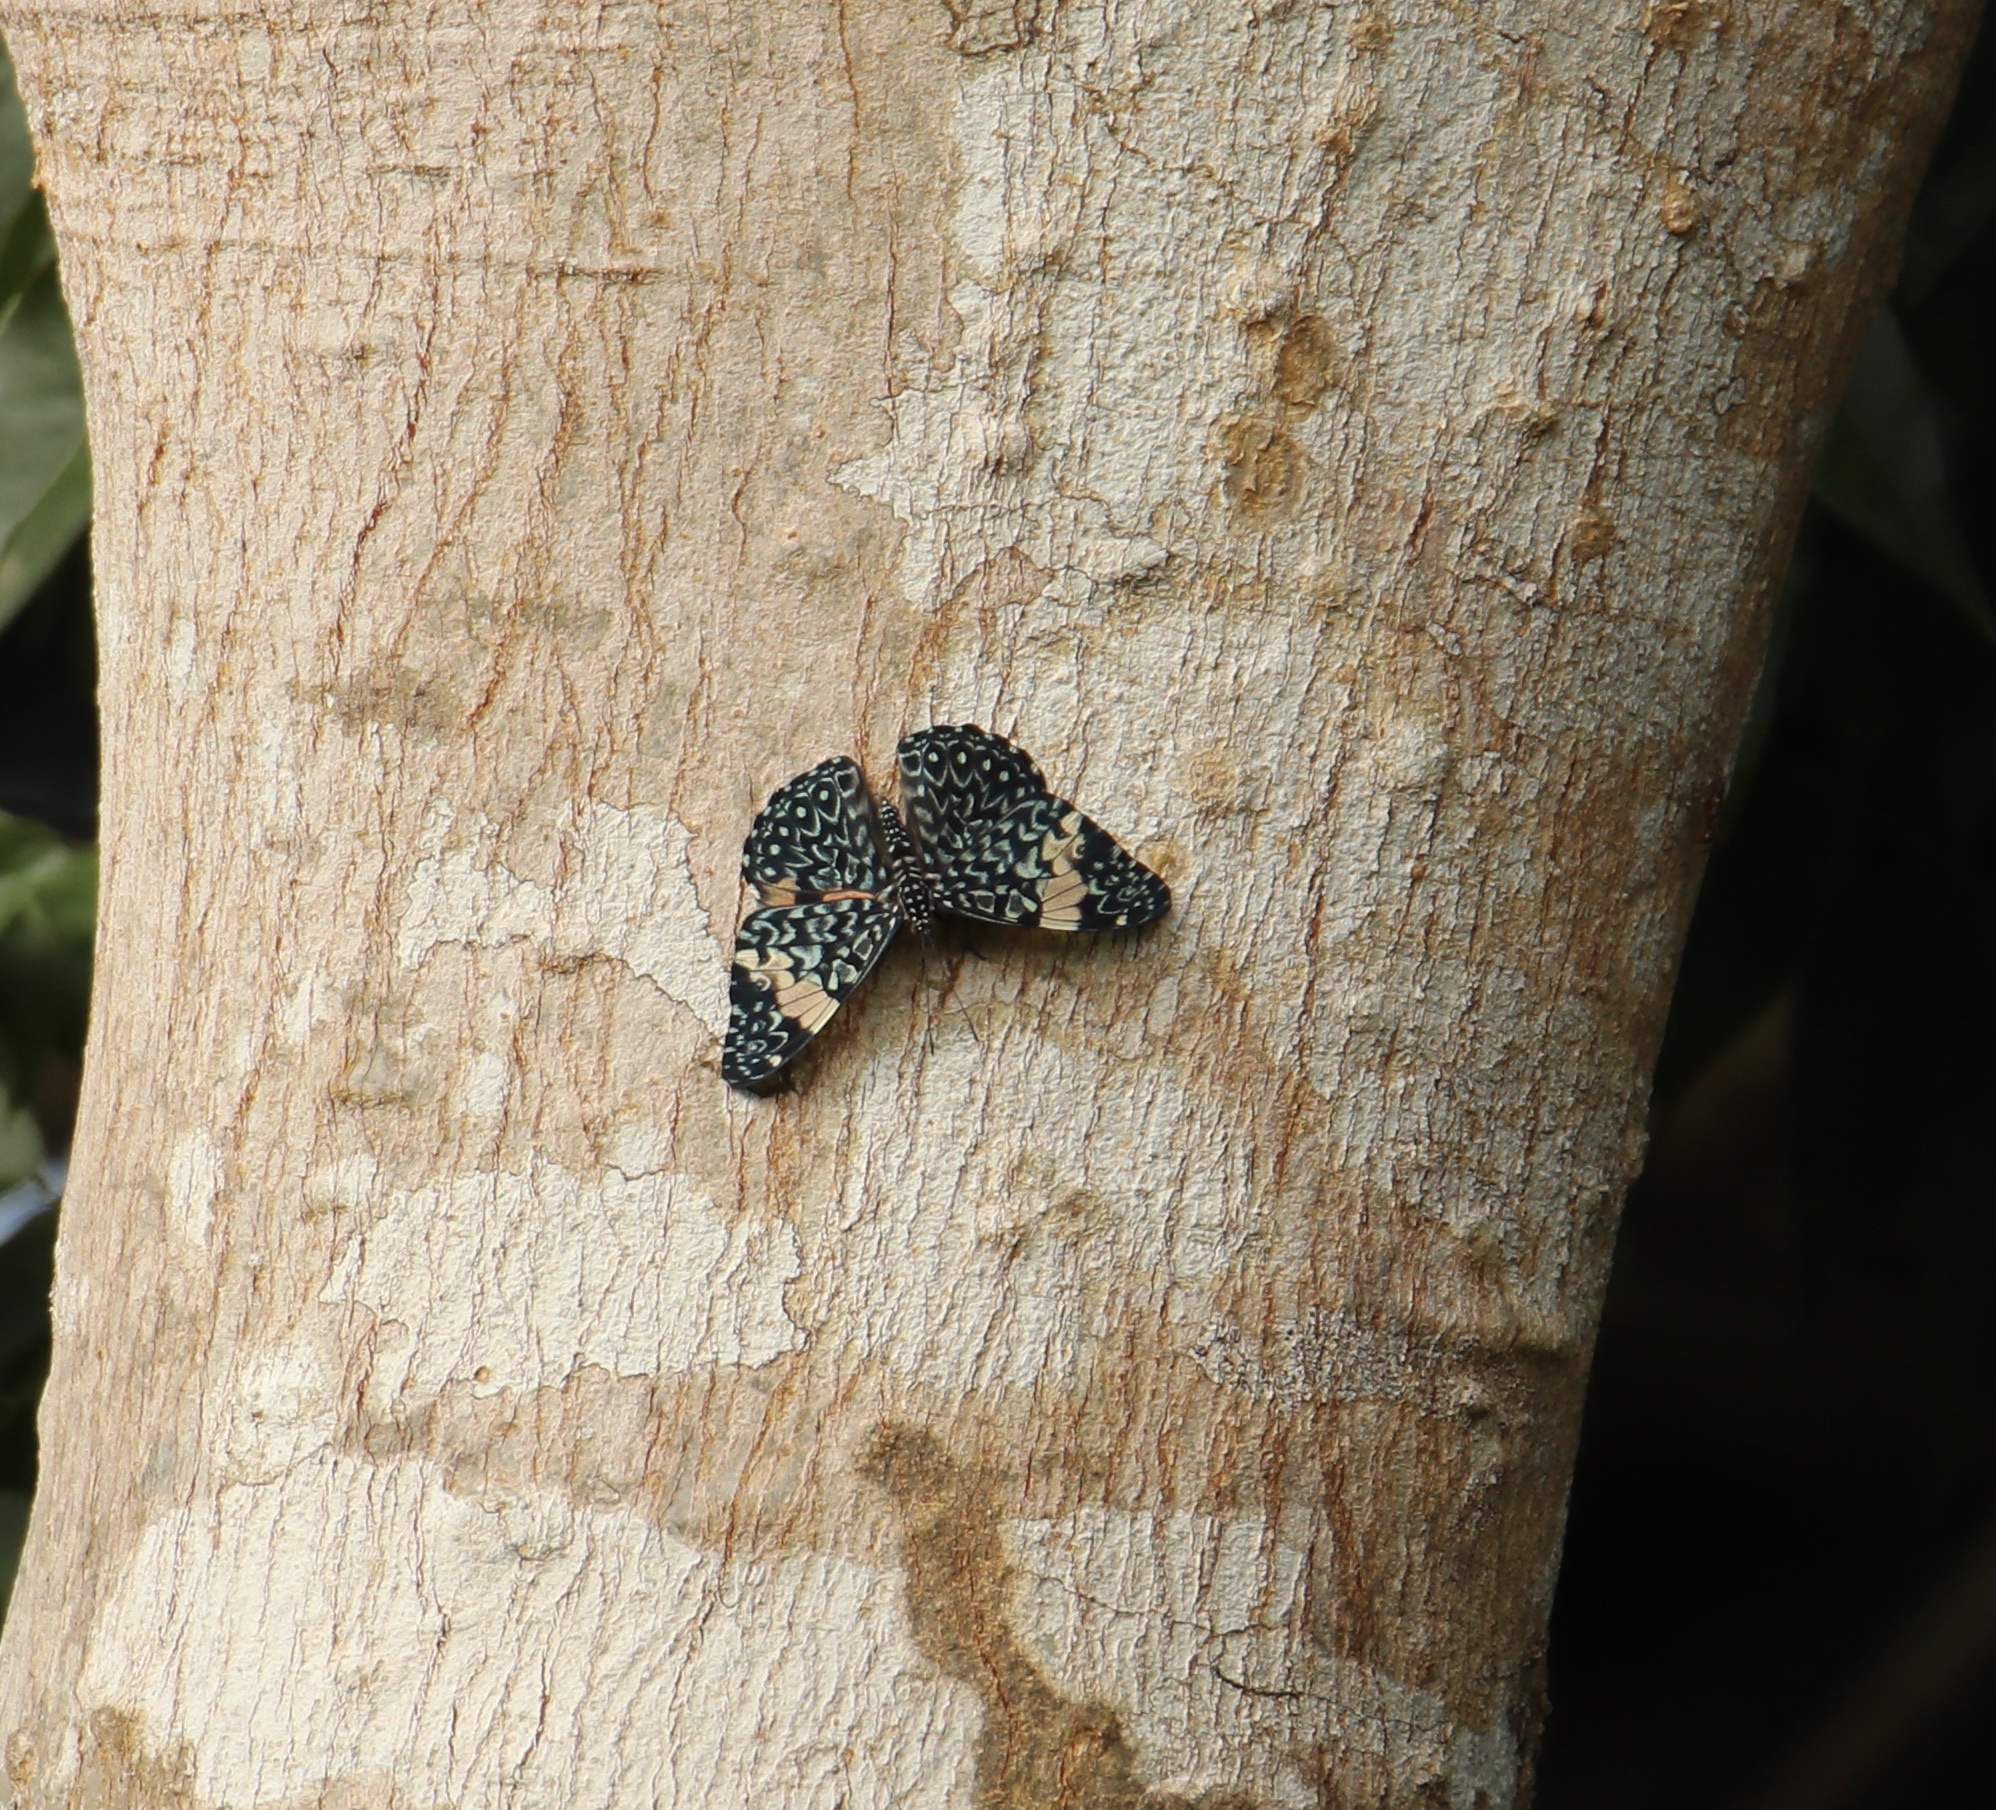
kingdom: Animalia
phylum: Arthropoda
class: Insecta
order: Lepidoptera
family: Nymphalidae
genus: Hamadryas
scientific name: Hamadryas amphinome
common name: Red cracker
